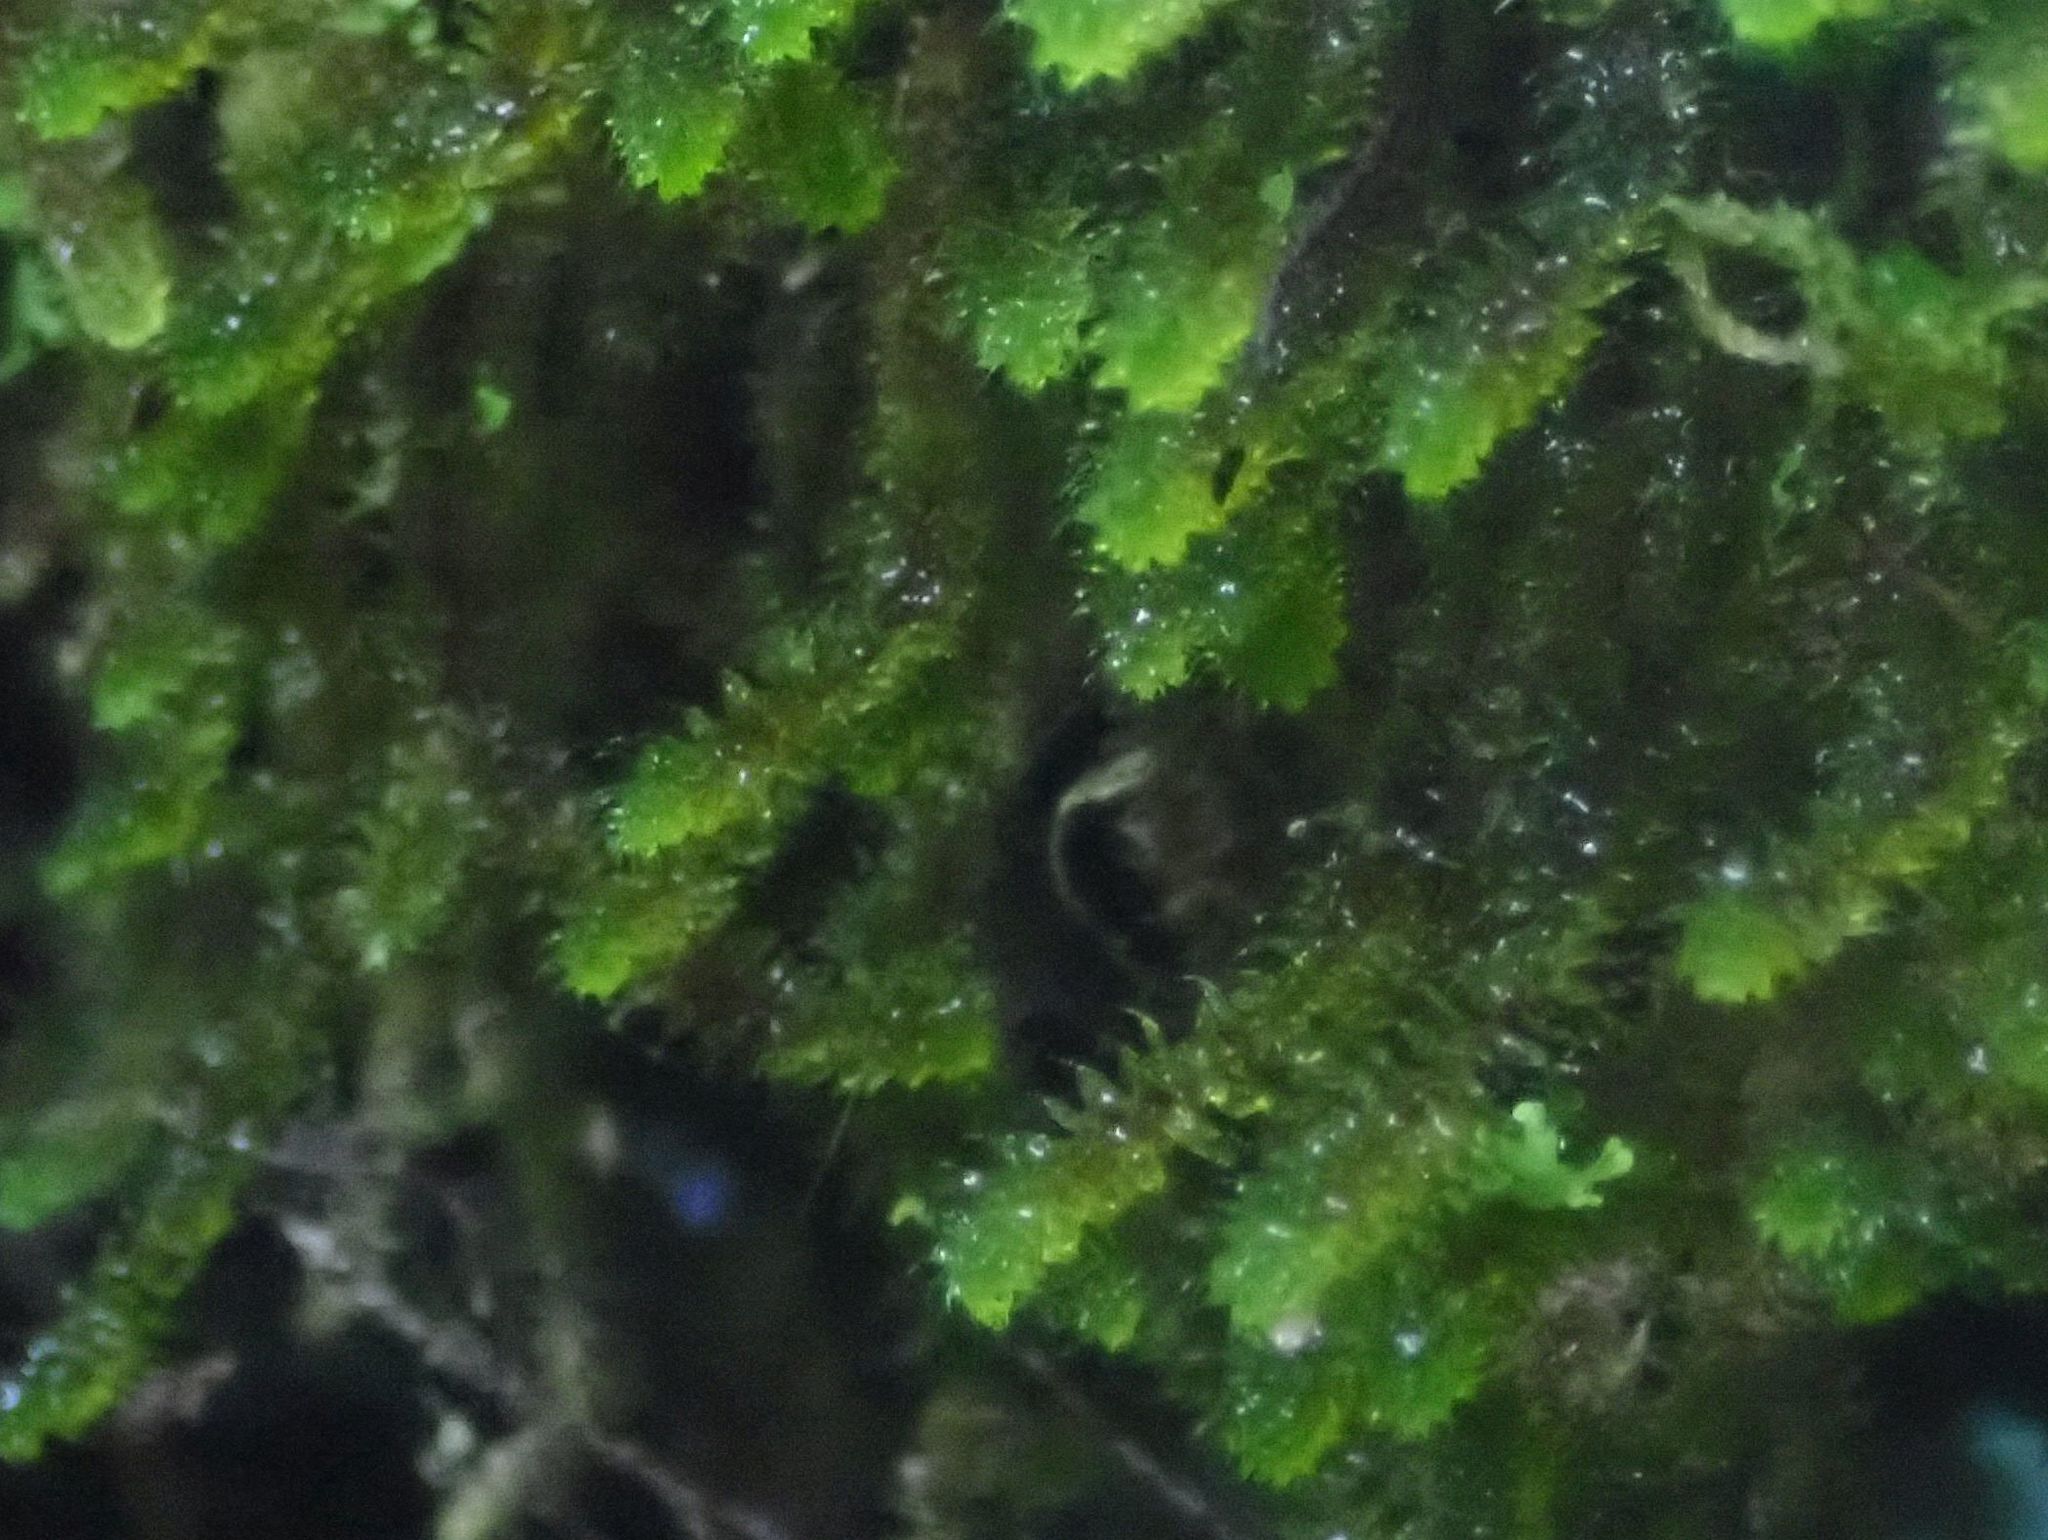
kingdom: Plantae
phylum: Bryophyta
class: Bryopsida
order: Ptychomniales
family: Ptychomniaceae
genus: Ptychomnion
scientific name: Ptychomnion aciculare
